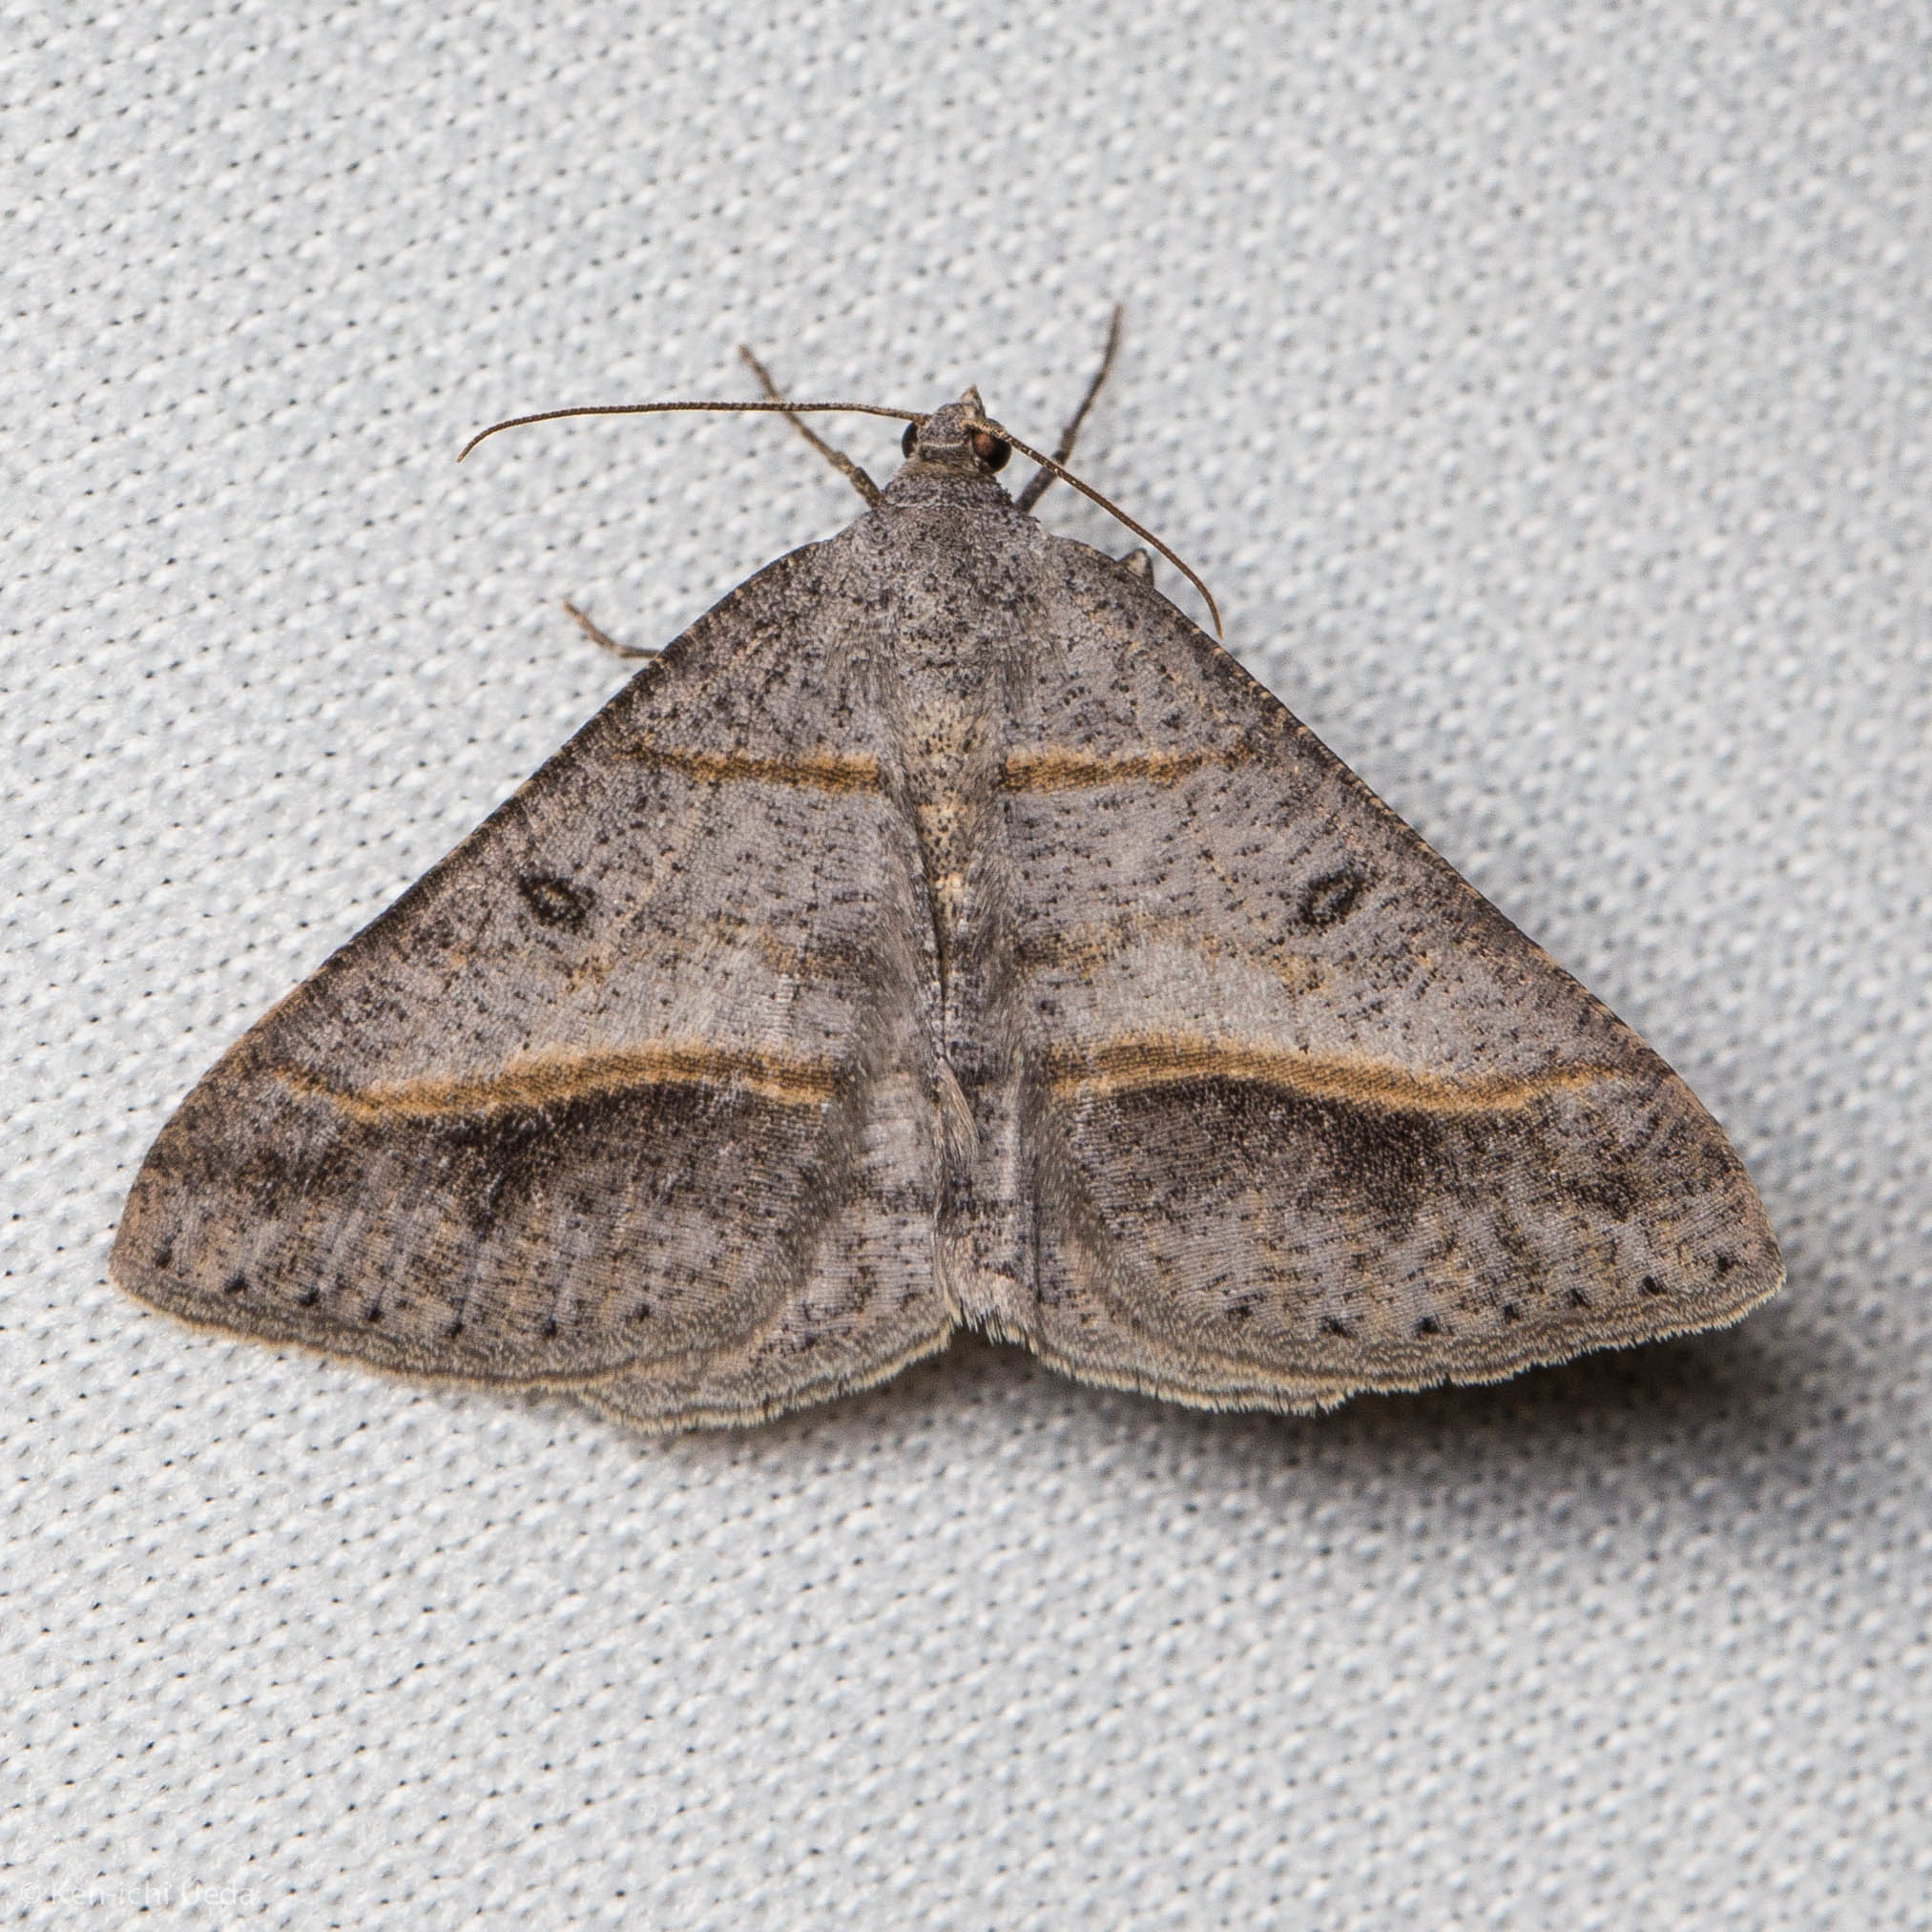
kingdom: Animalia
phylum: Arthropoda
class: Insecta
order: Lepidoptera
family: Geometridae
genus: Digrammia
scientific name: Digrammia neptaria
